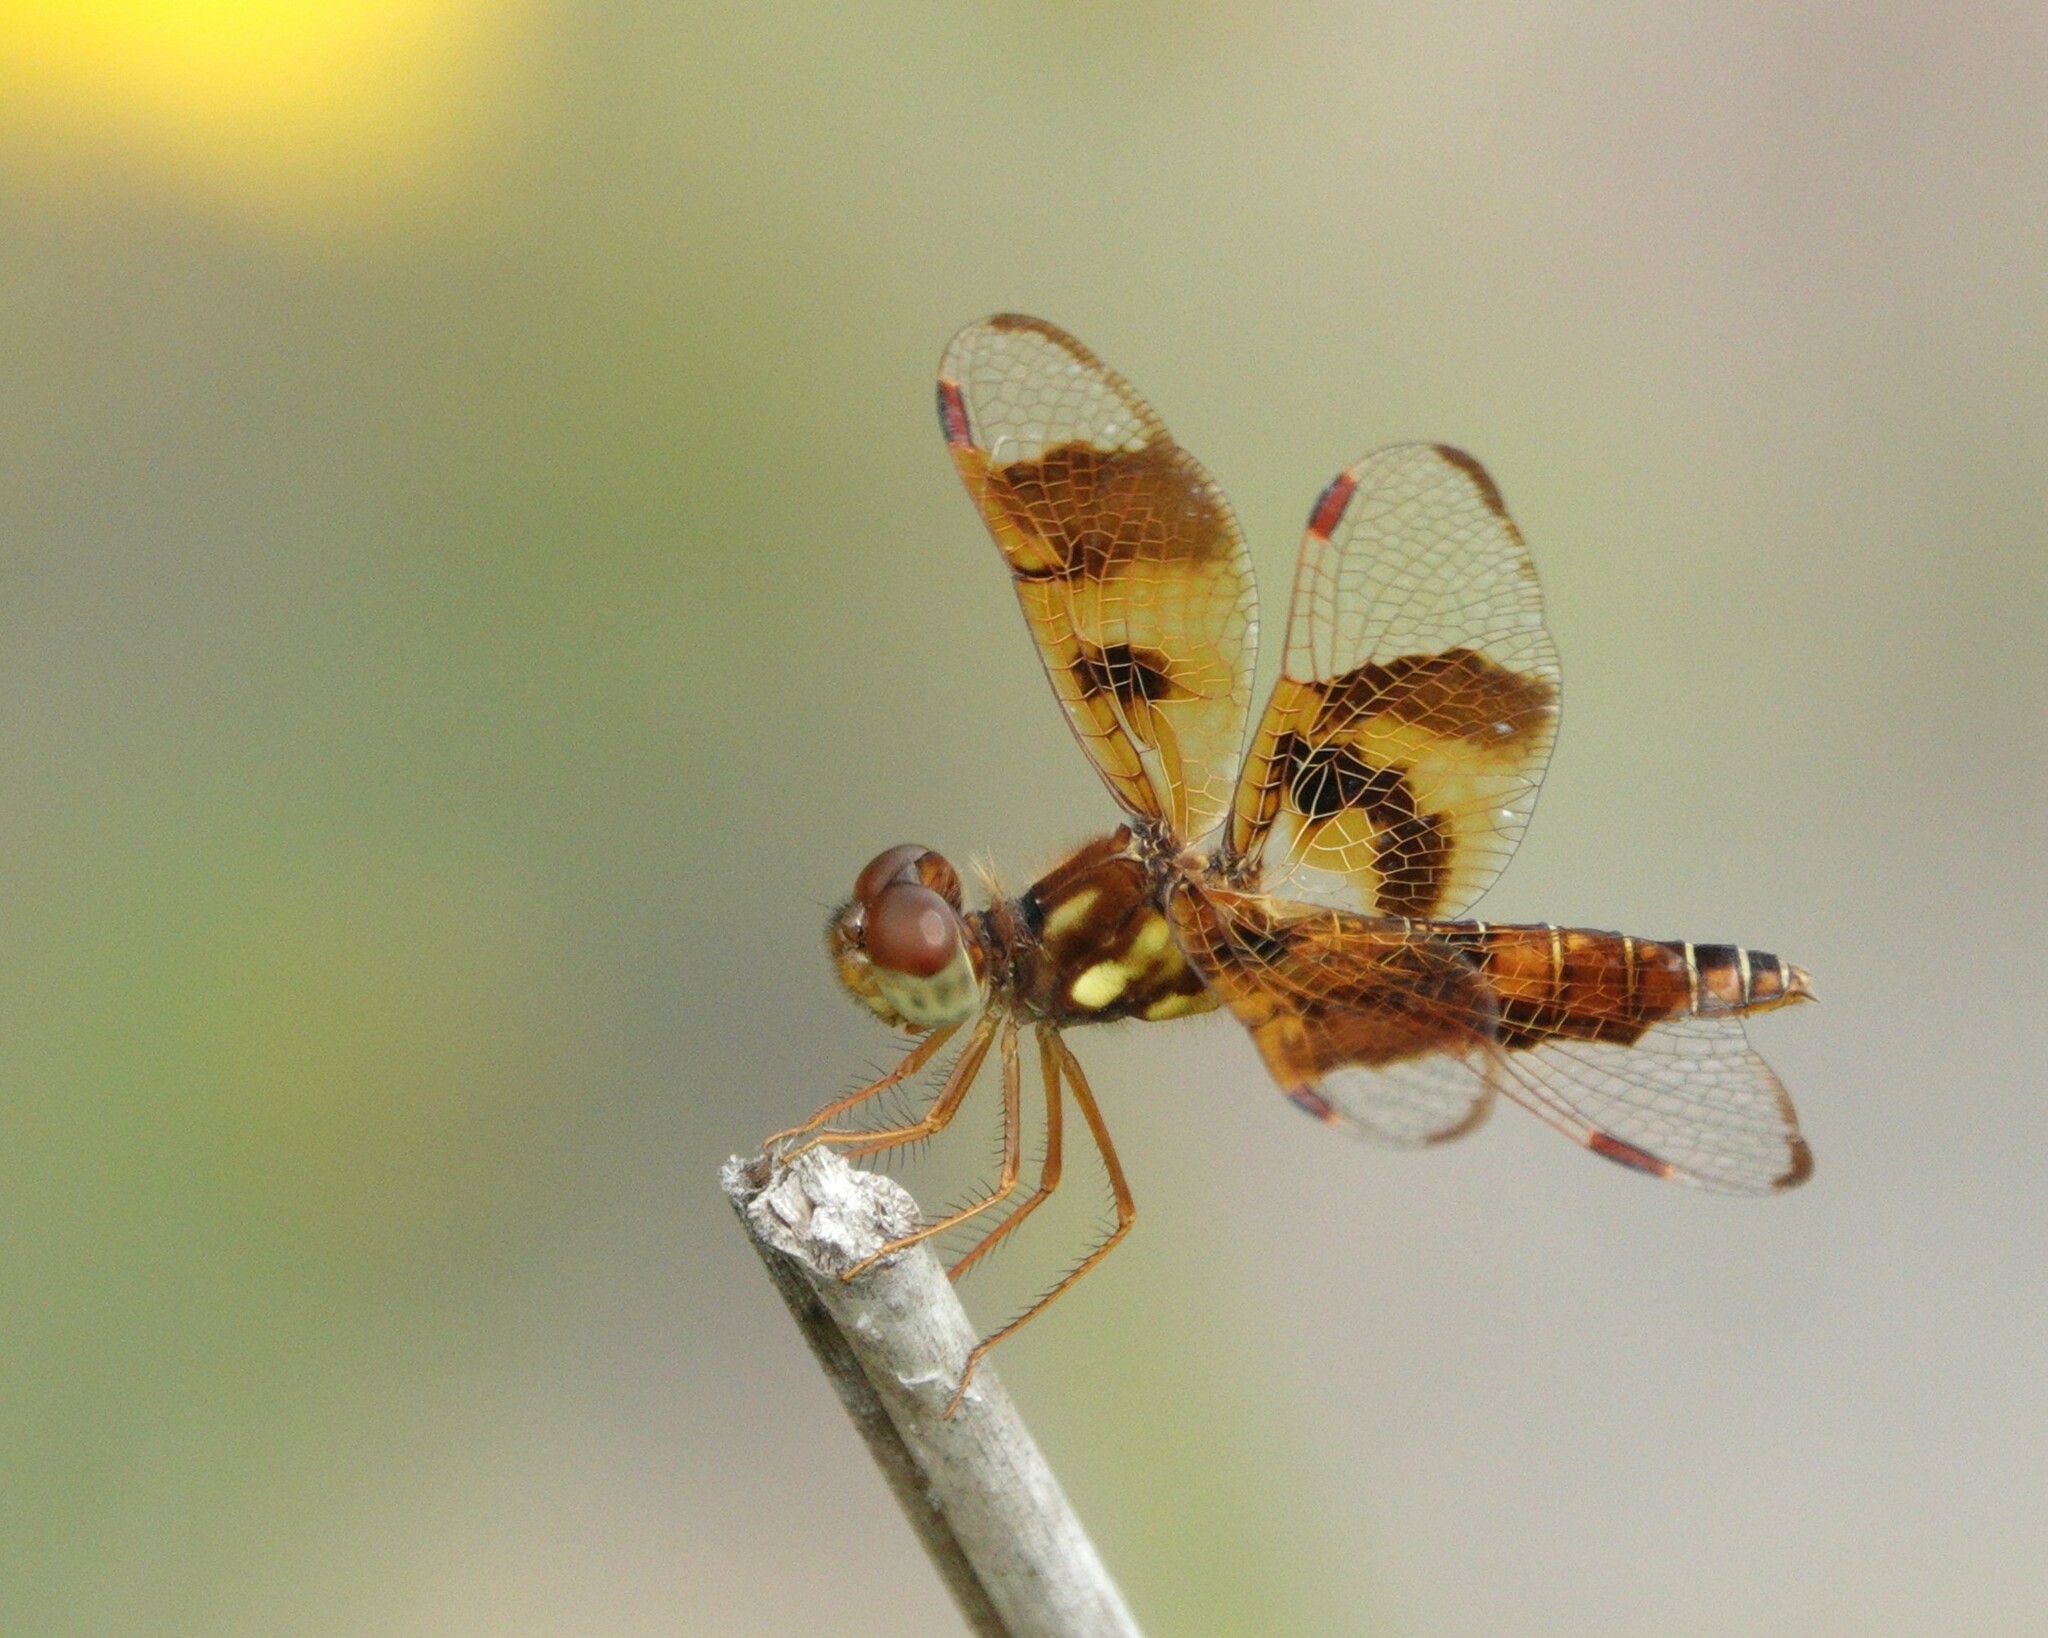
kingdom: Animalia
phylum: Arthropoda
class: Insecta
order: Odonata
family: Libellulidae
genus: Perithemis
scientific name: Perithemis tenera
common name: Eastern amberwing
